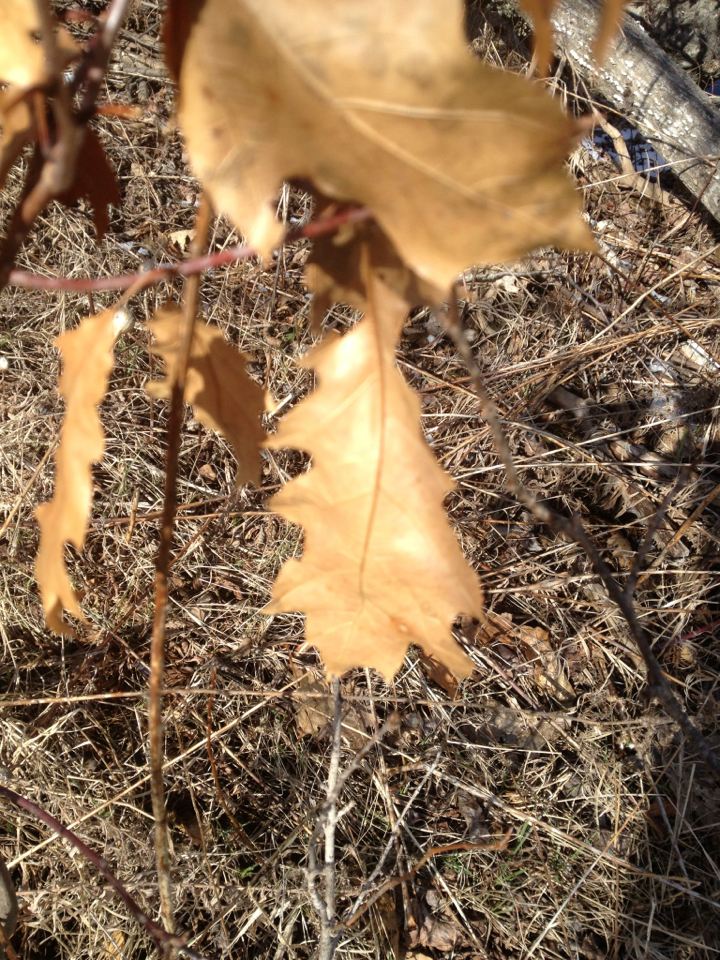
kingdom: Plantae
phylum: Tracheophyta
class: Magnoliopsida
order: Fagales
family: Fagaceae
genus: Quercus
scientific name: Quercus rubra
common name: Red oak
